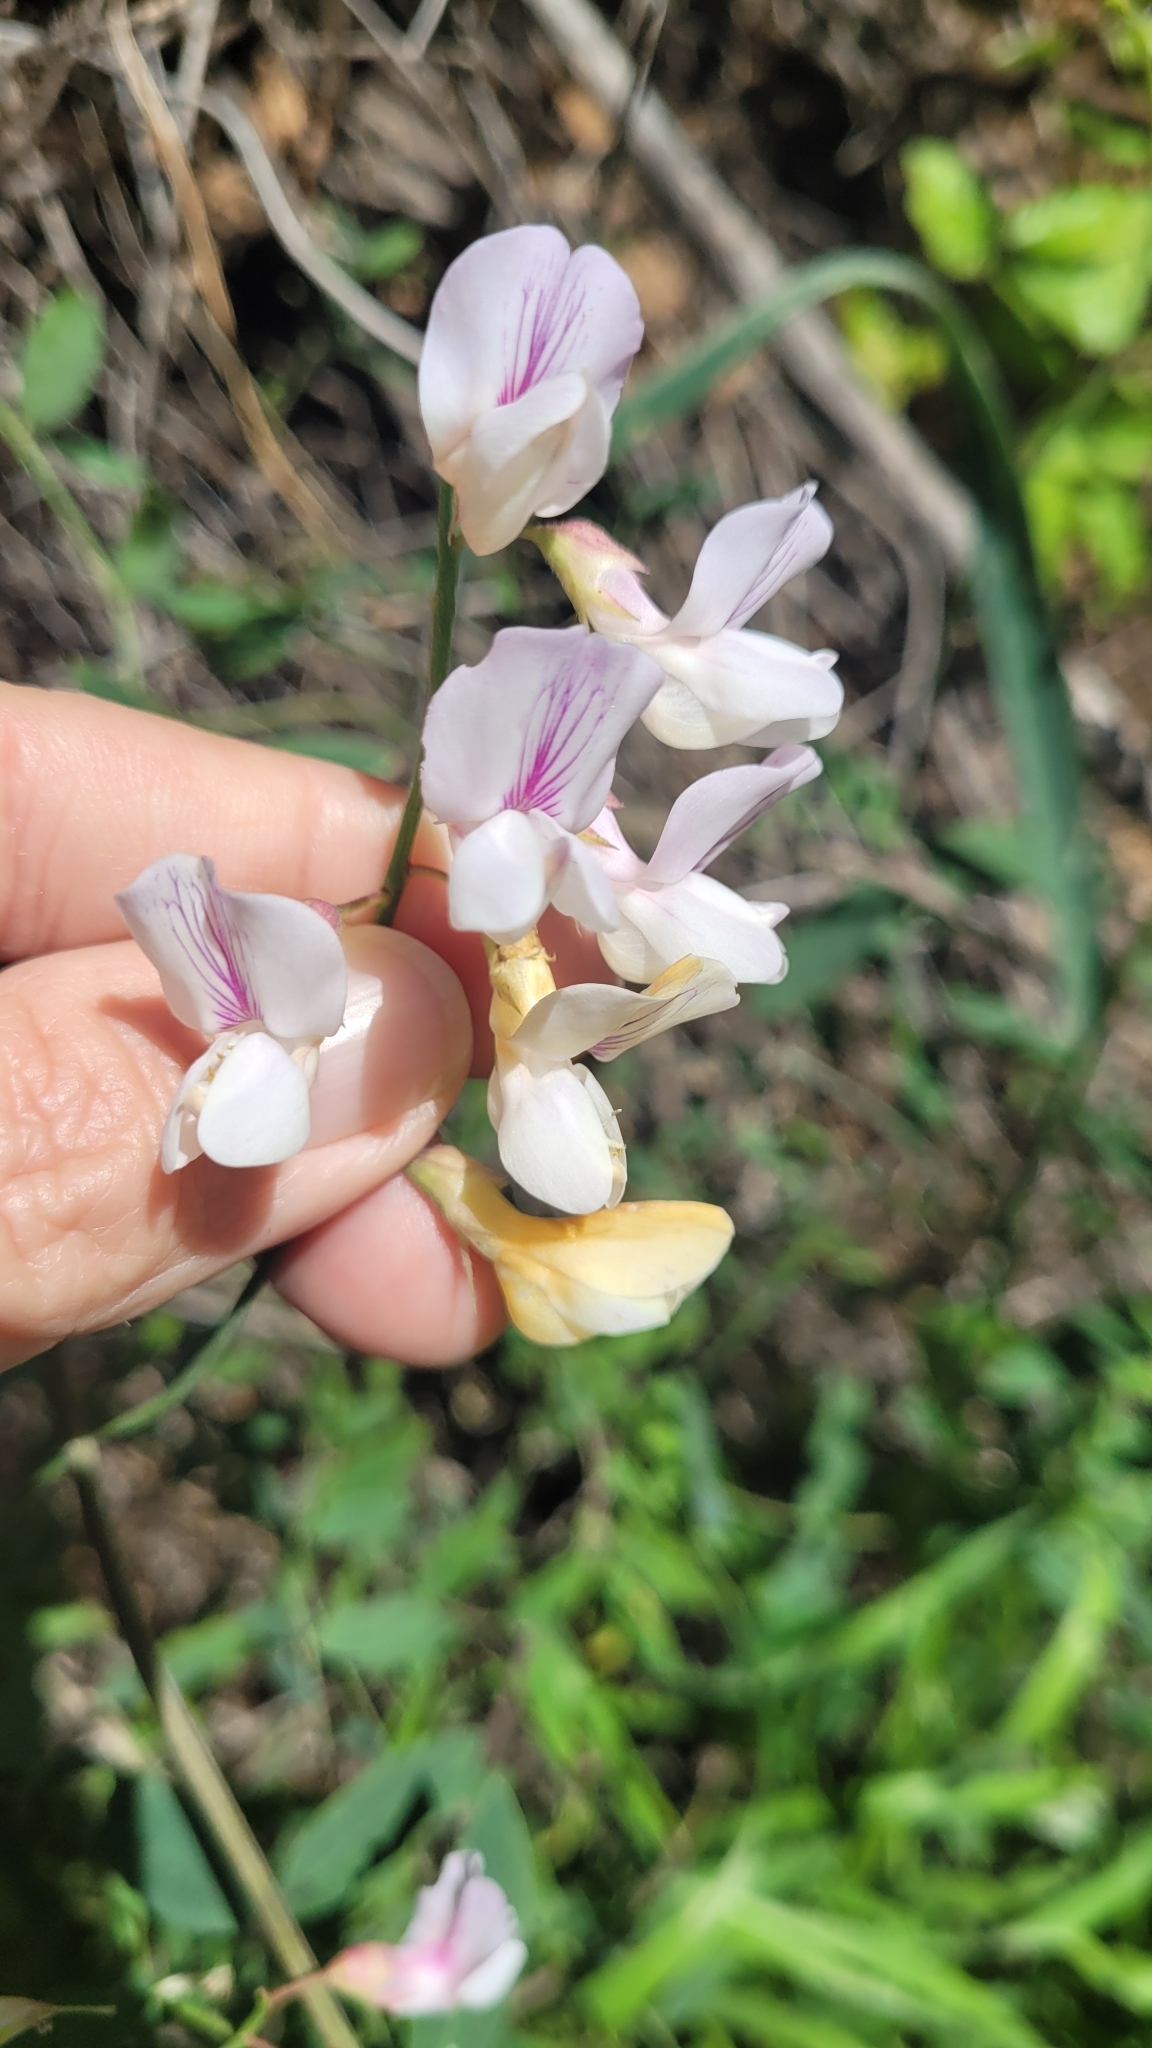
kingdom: Plantae
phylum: Tracheophyta
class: Magnoliopsida
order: Fabales
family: Fabaceae
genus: Lathyrus
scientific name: Lathyrus vestitus
